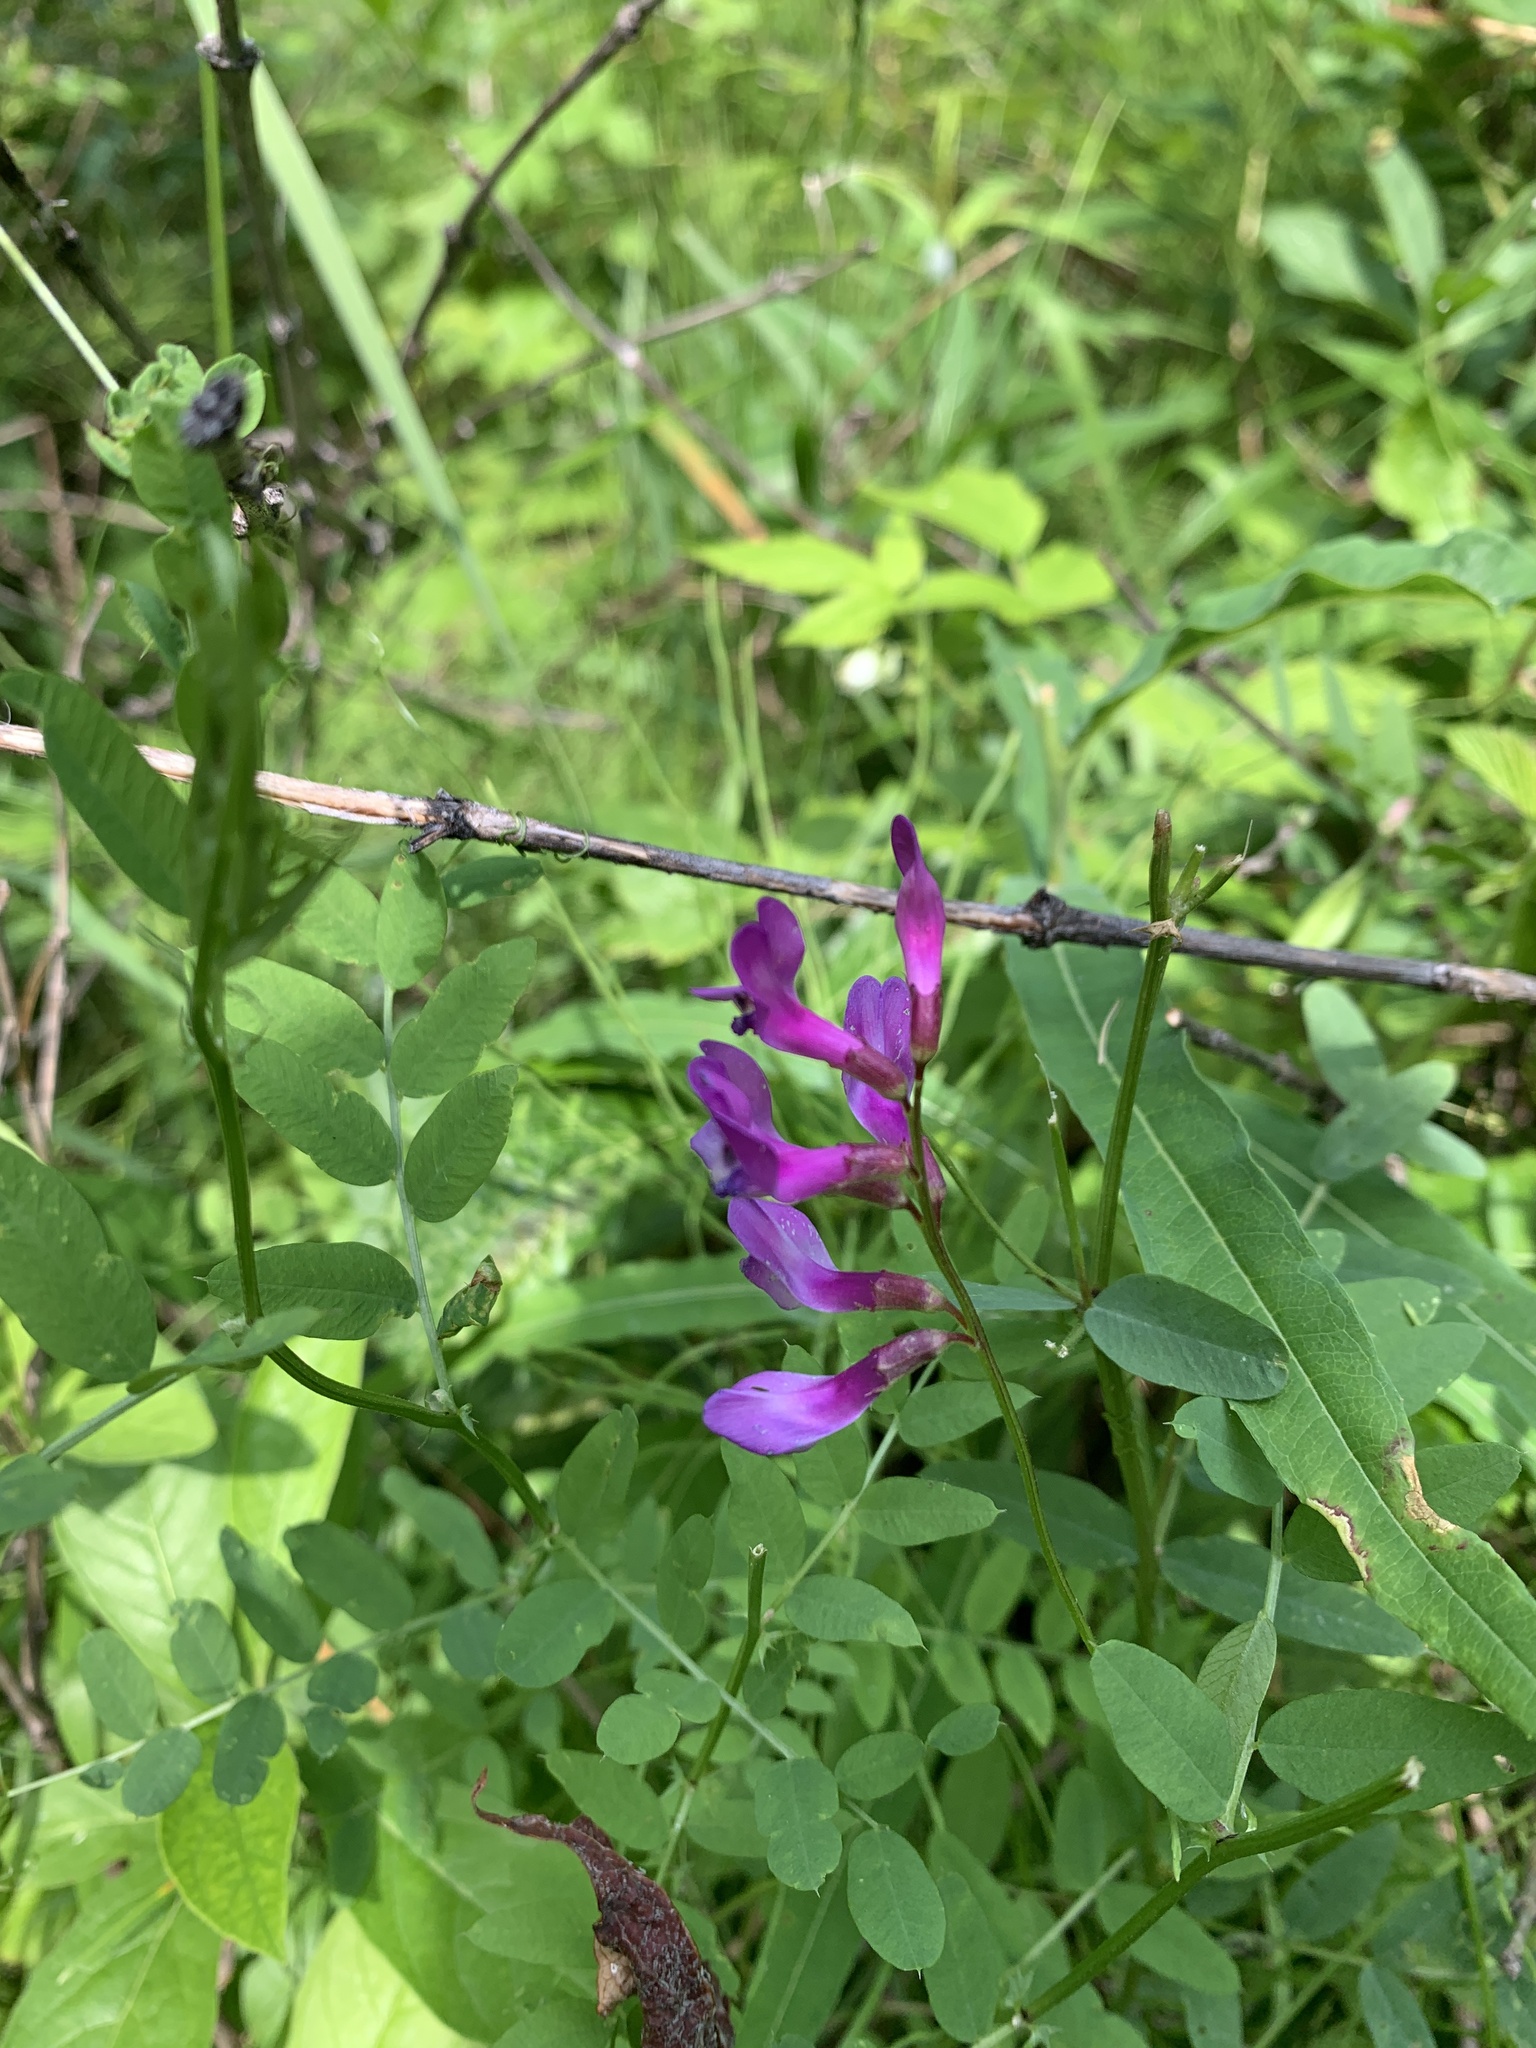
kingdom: Plantae
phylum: Tracheophyta
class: Magnoliopsida
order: Fabales
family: Fabaceae
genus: Vicia
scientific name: Vicia americana
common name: American vetch
